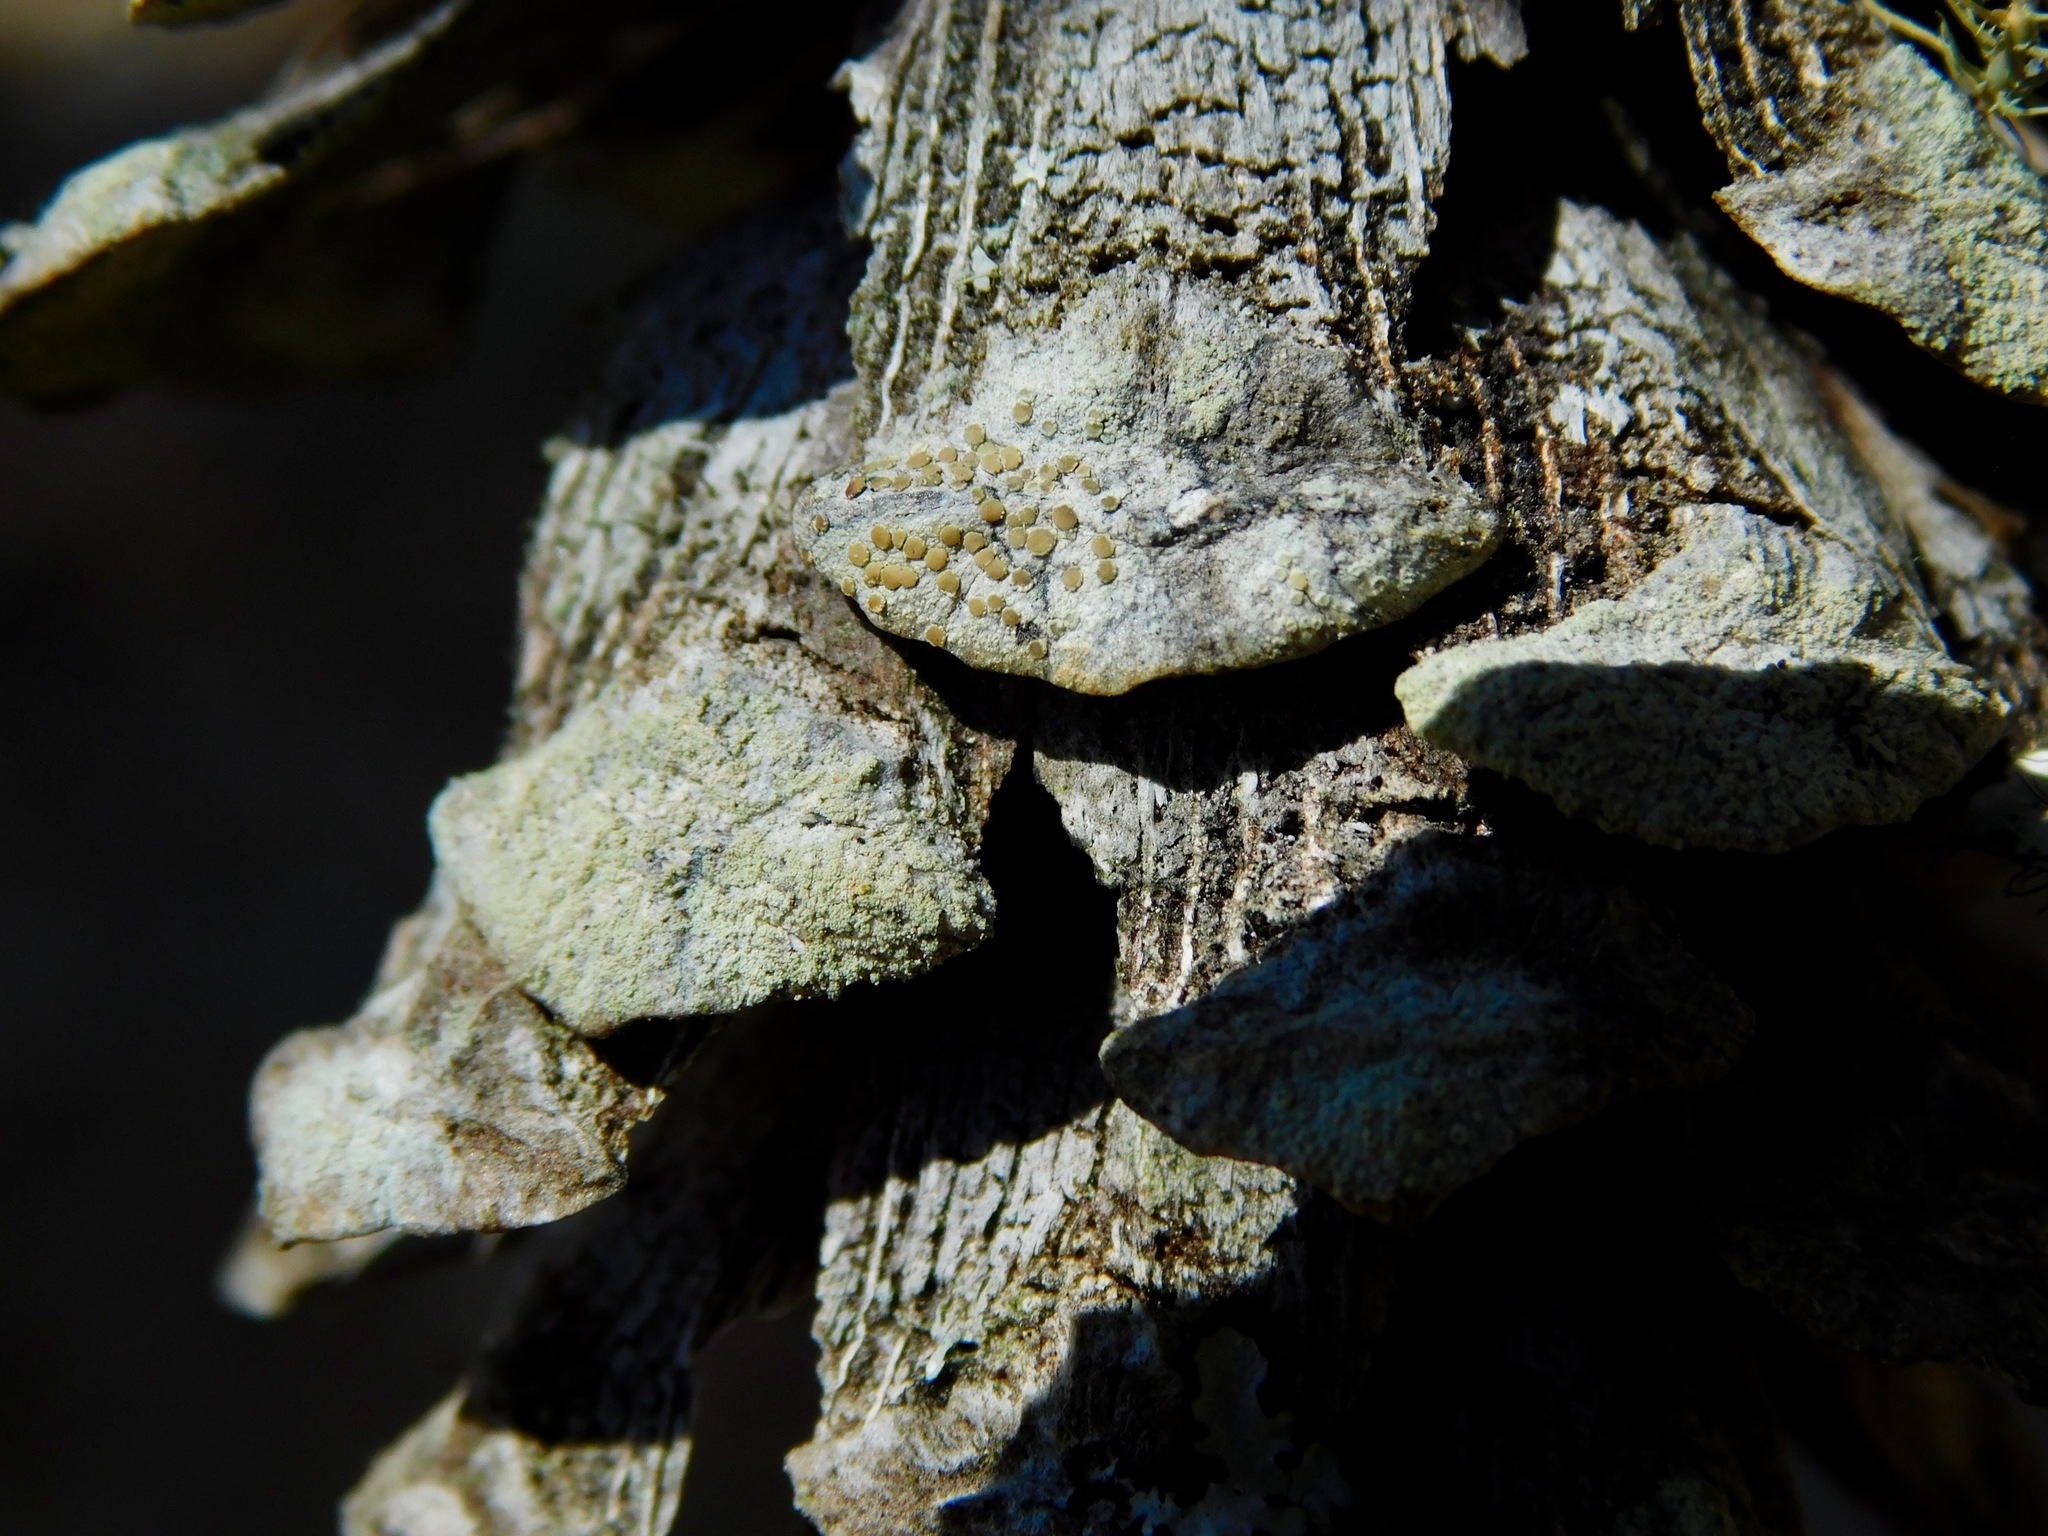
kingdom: Fungi
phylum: Ascomycota
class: Lecanoromycetes
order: Lecanorales
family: Lecanoraceae
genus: Lecanora
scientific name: Lecanora strobilina
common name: Mealy rim-lichen
